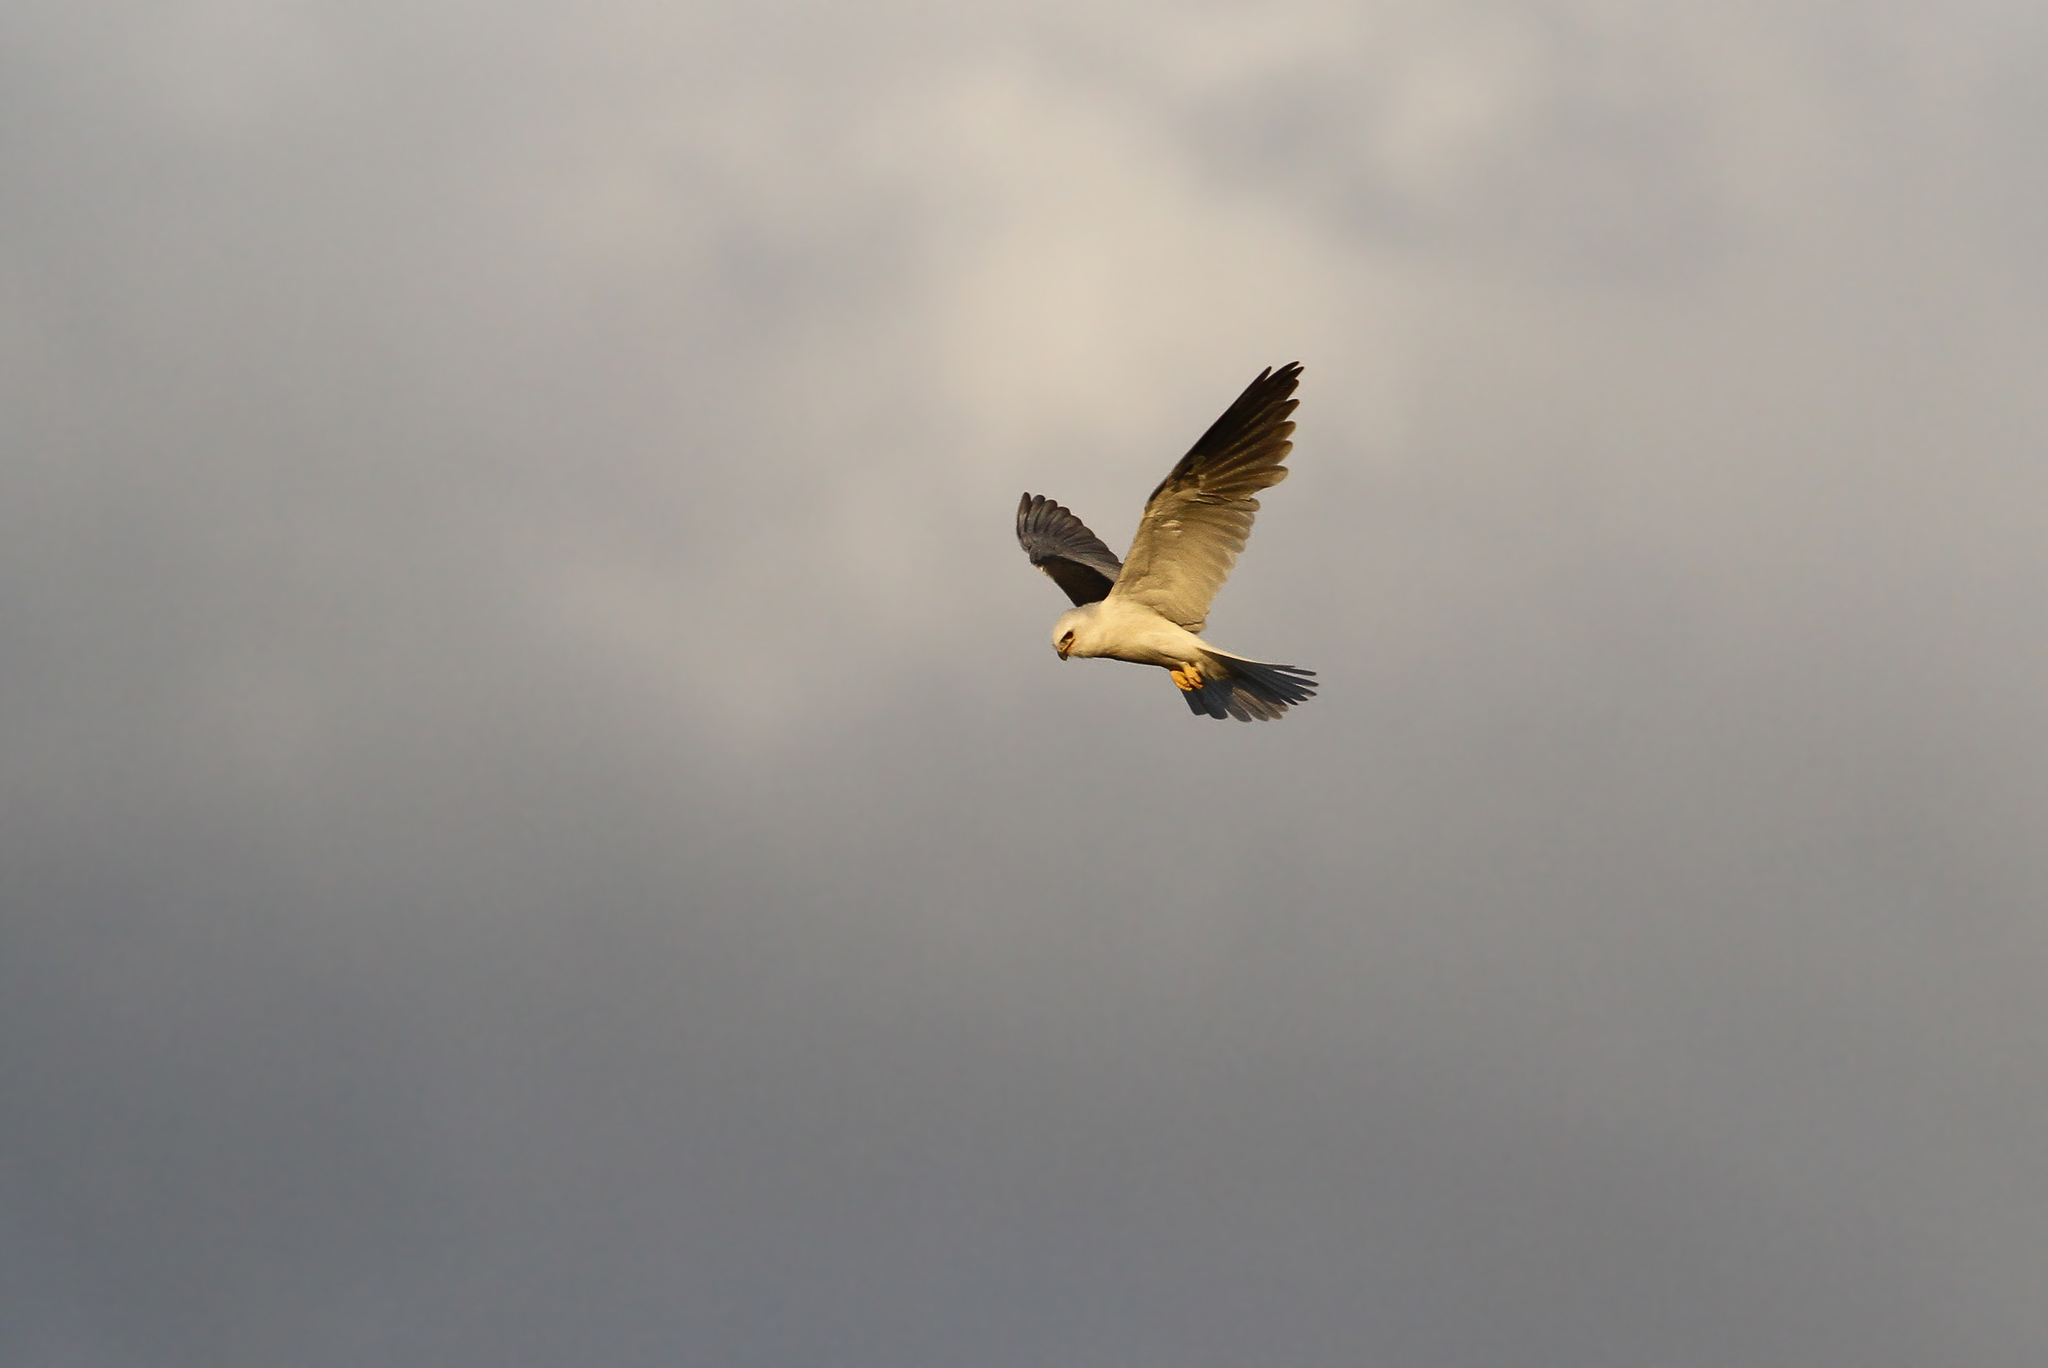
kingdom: Animalia
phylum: Chordata
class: Aves
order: Accipitriformes
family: Accipitridae
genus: Elanus
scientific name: Elanus leucurus
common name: White-tailed kite
